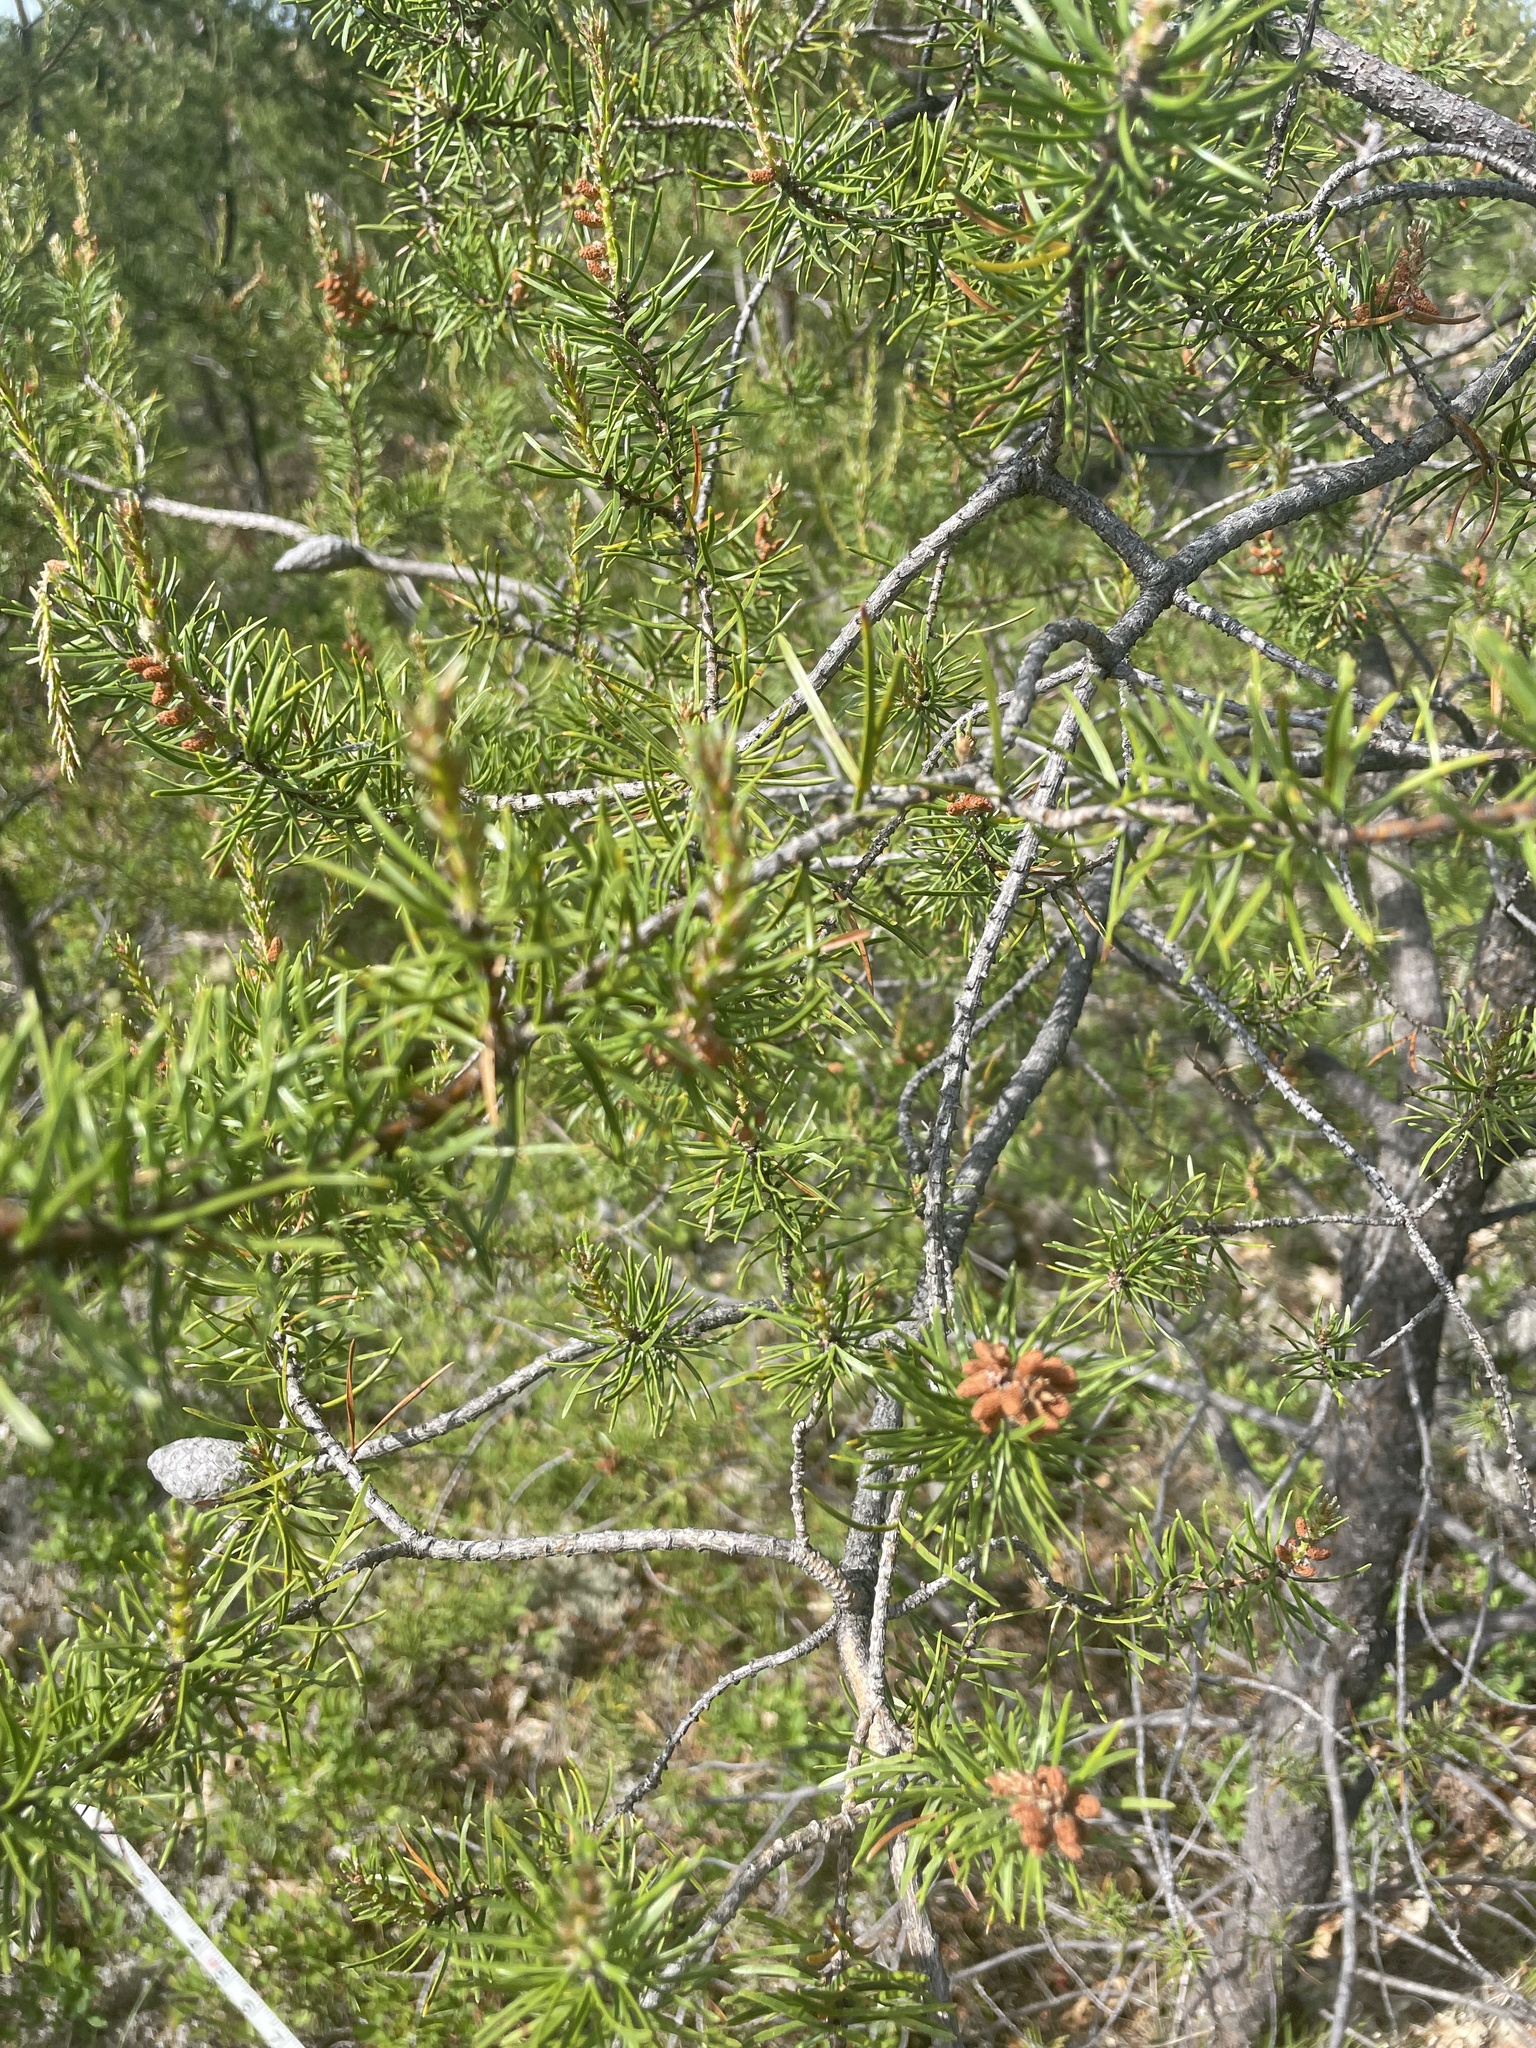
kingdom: Plantae
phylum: Tracheophyta
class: Pinopsida
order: Pinales
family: Pinaceae
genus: Pinus
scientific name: Pinus banksiana
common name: Jack pine
